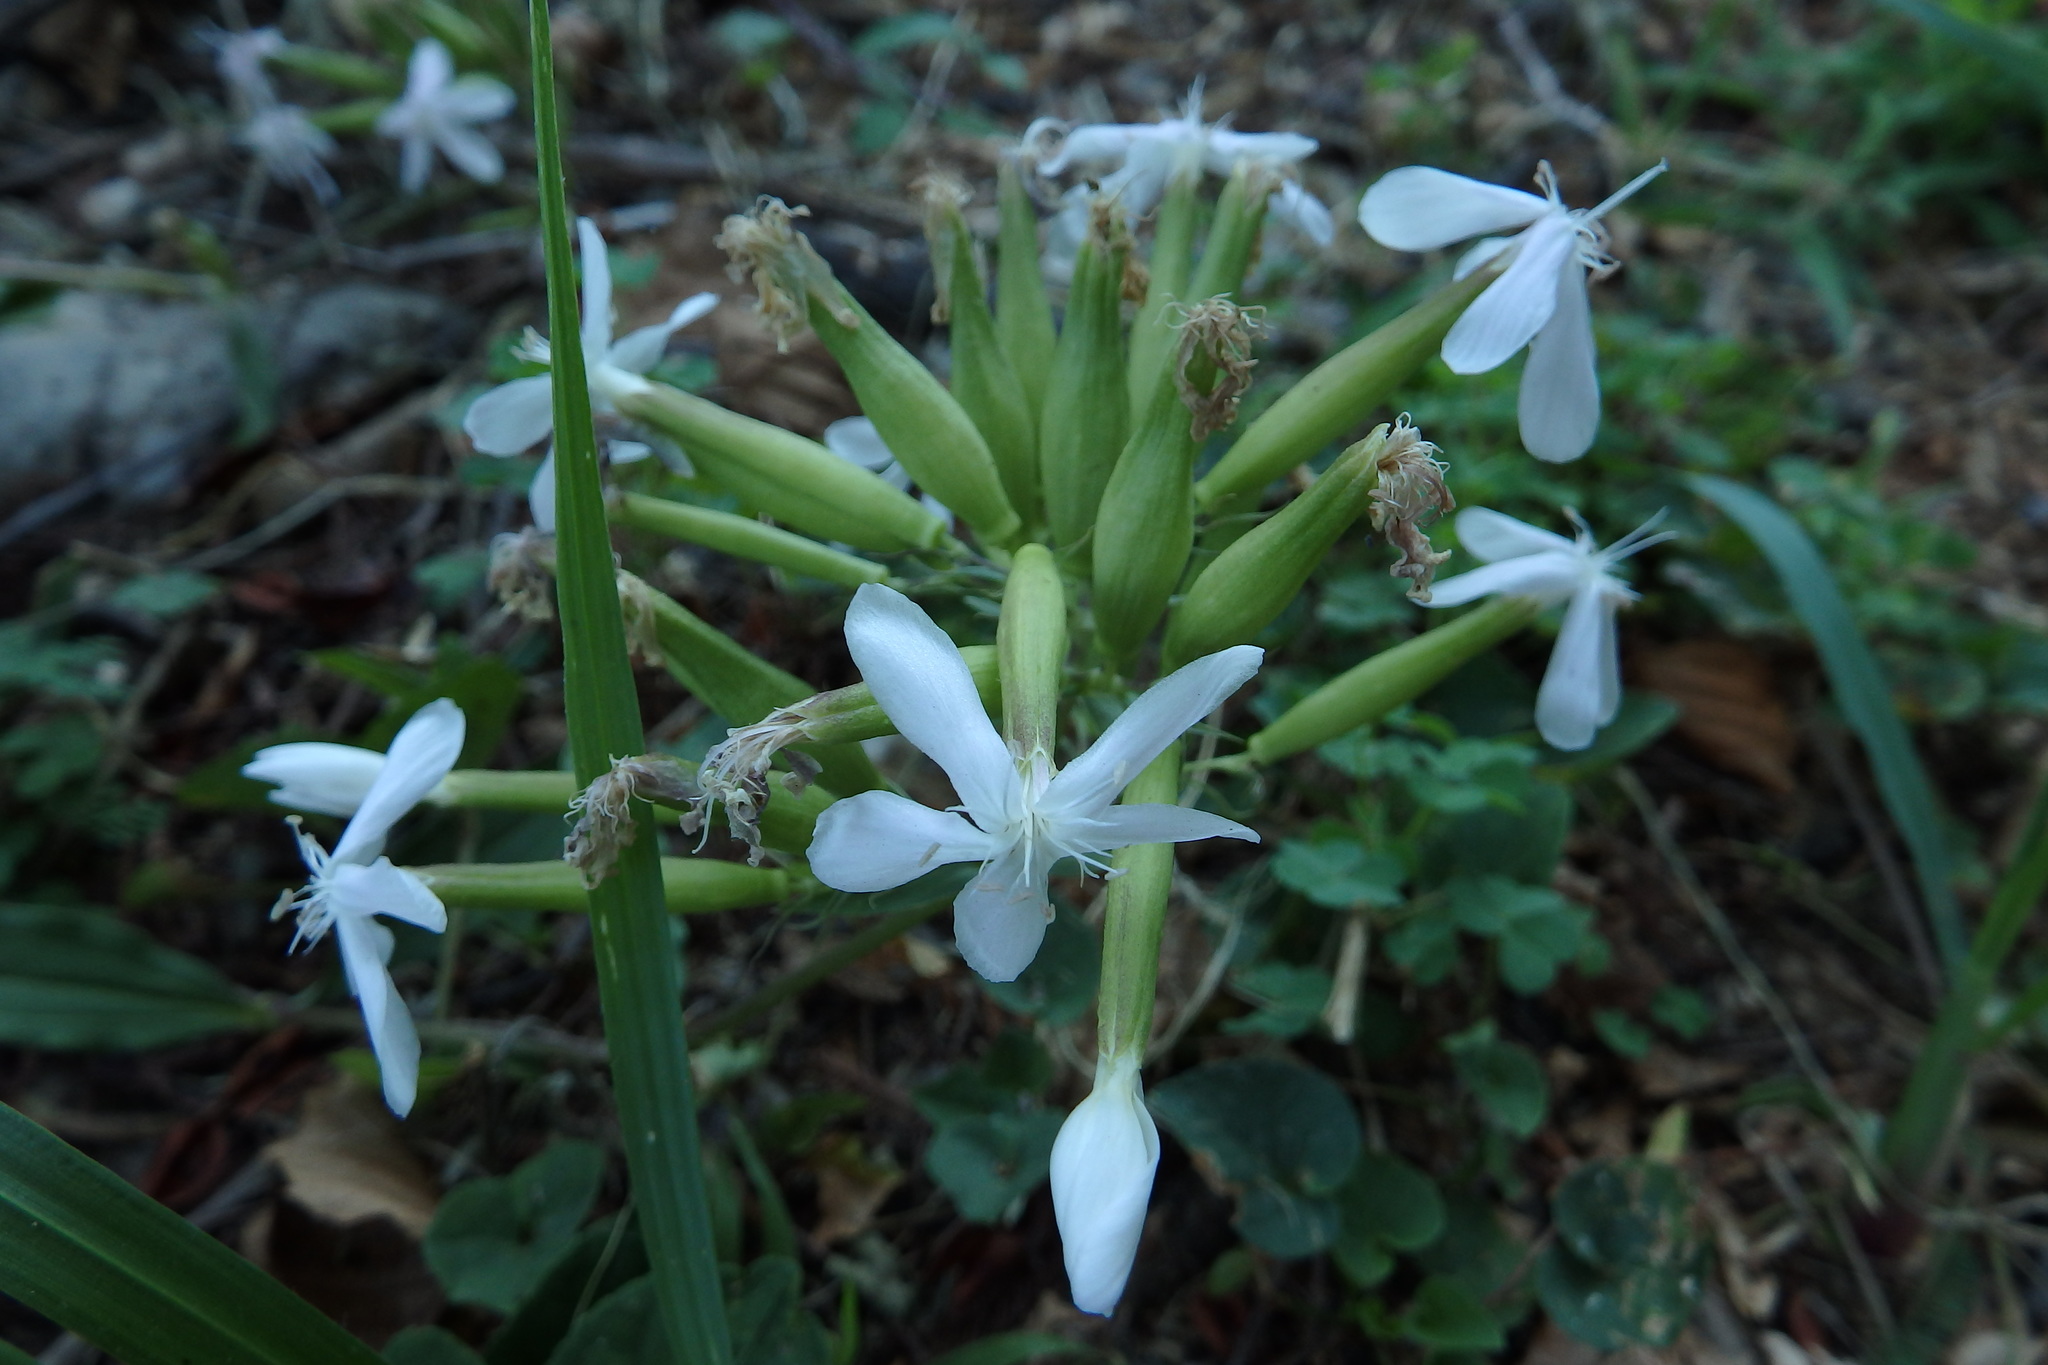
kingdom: Plantae
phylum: Tracheophyta
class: Magnoliopsida
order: Caryophyllales
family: Caryophyllaceae
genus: Saponaria
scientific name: Saponaria officinalis
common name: Soapwort
